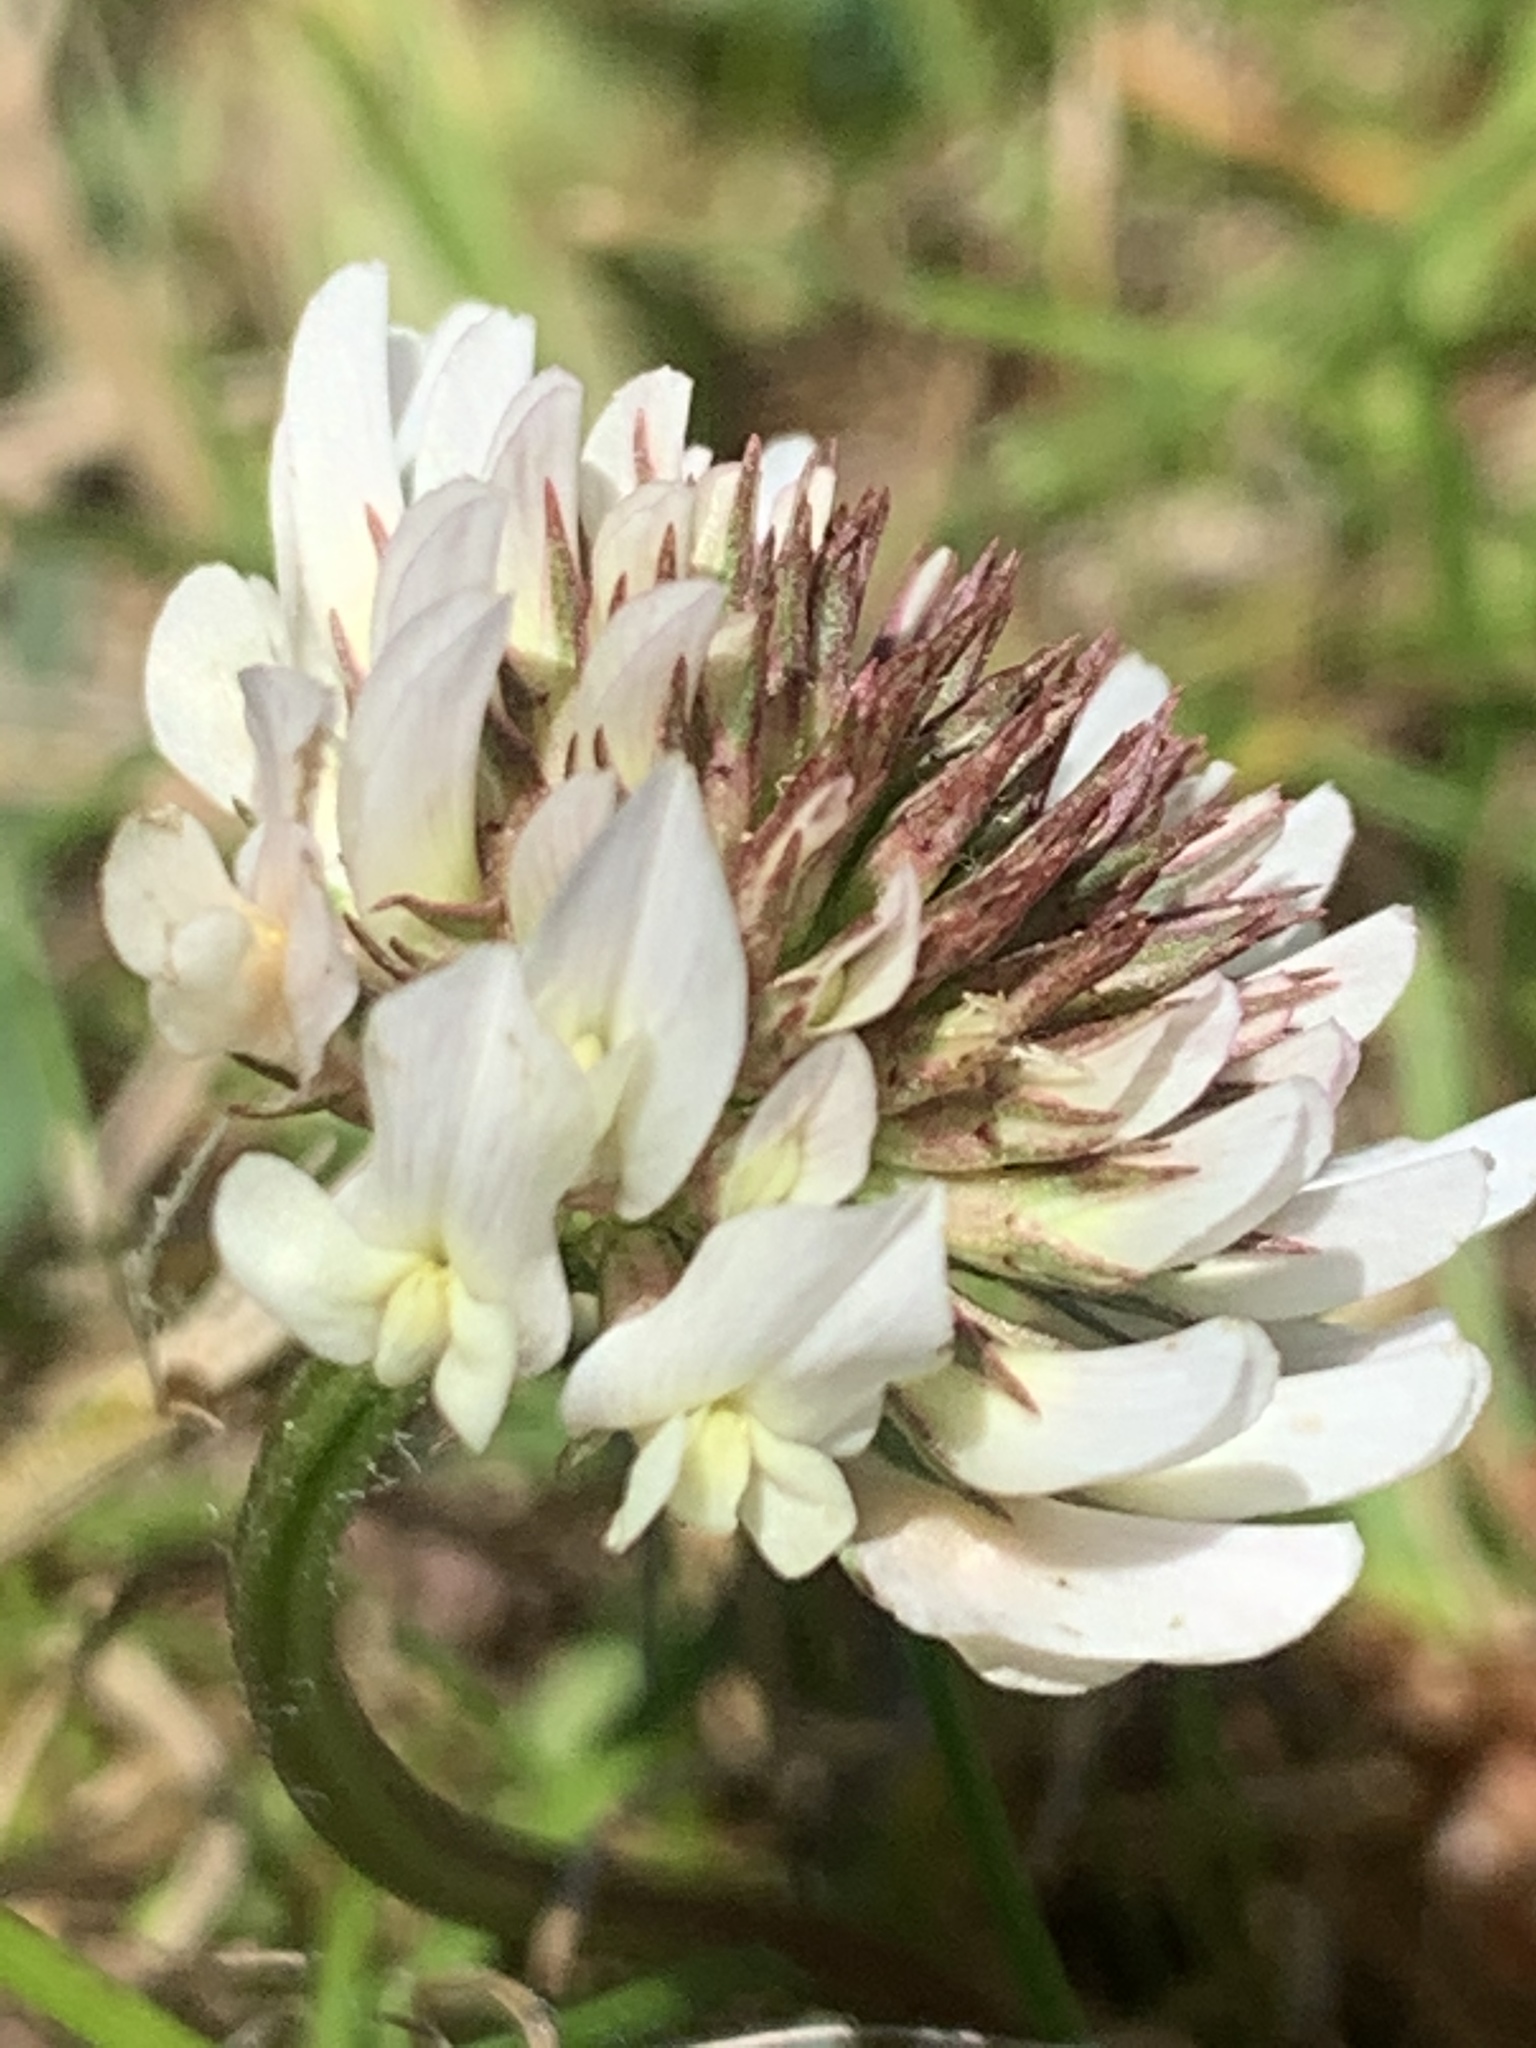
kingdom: Plantae
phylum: Tracheophyta
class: Magnoliopsida
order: Fabales
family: Fabaceae
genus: Trifolium
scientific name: Trifolium repens
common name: White clover
